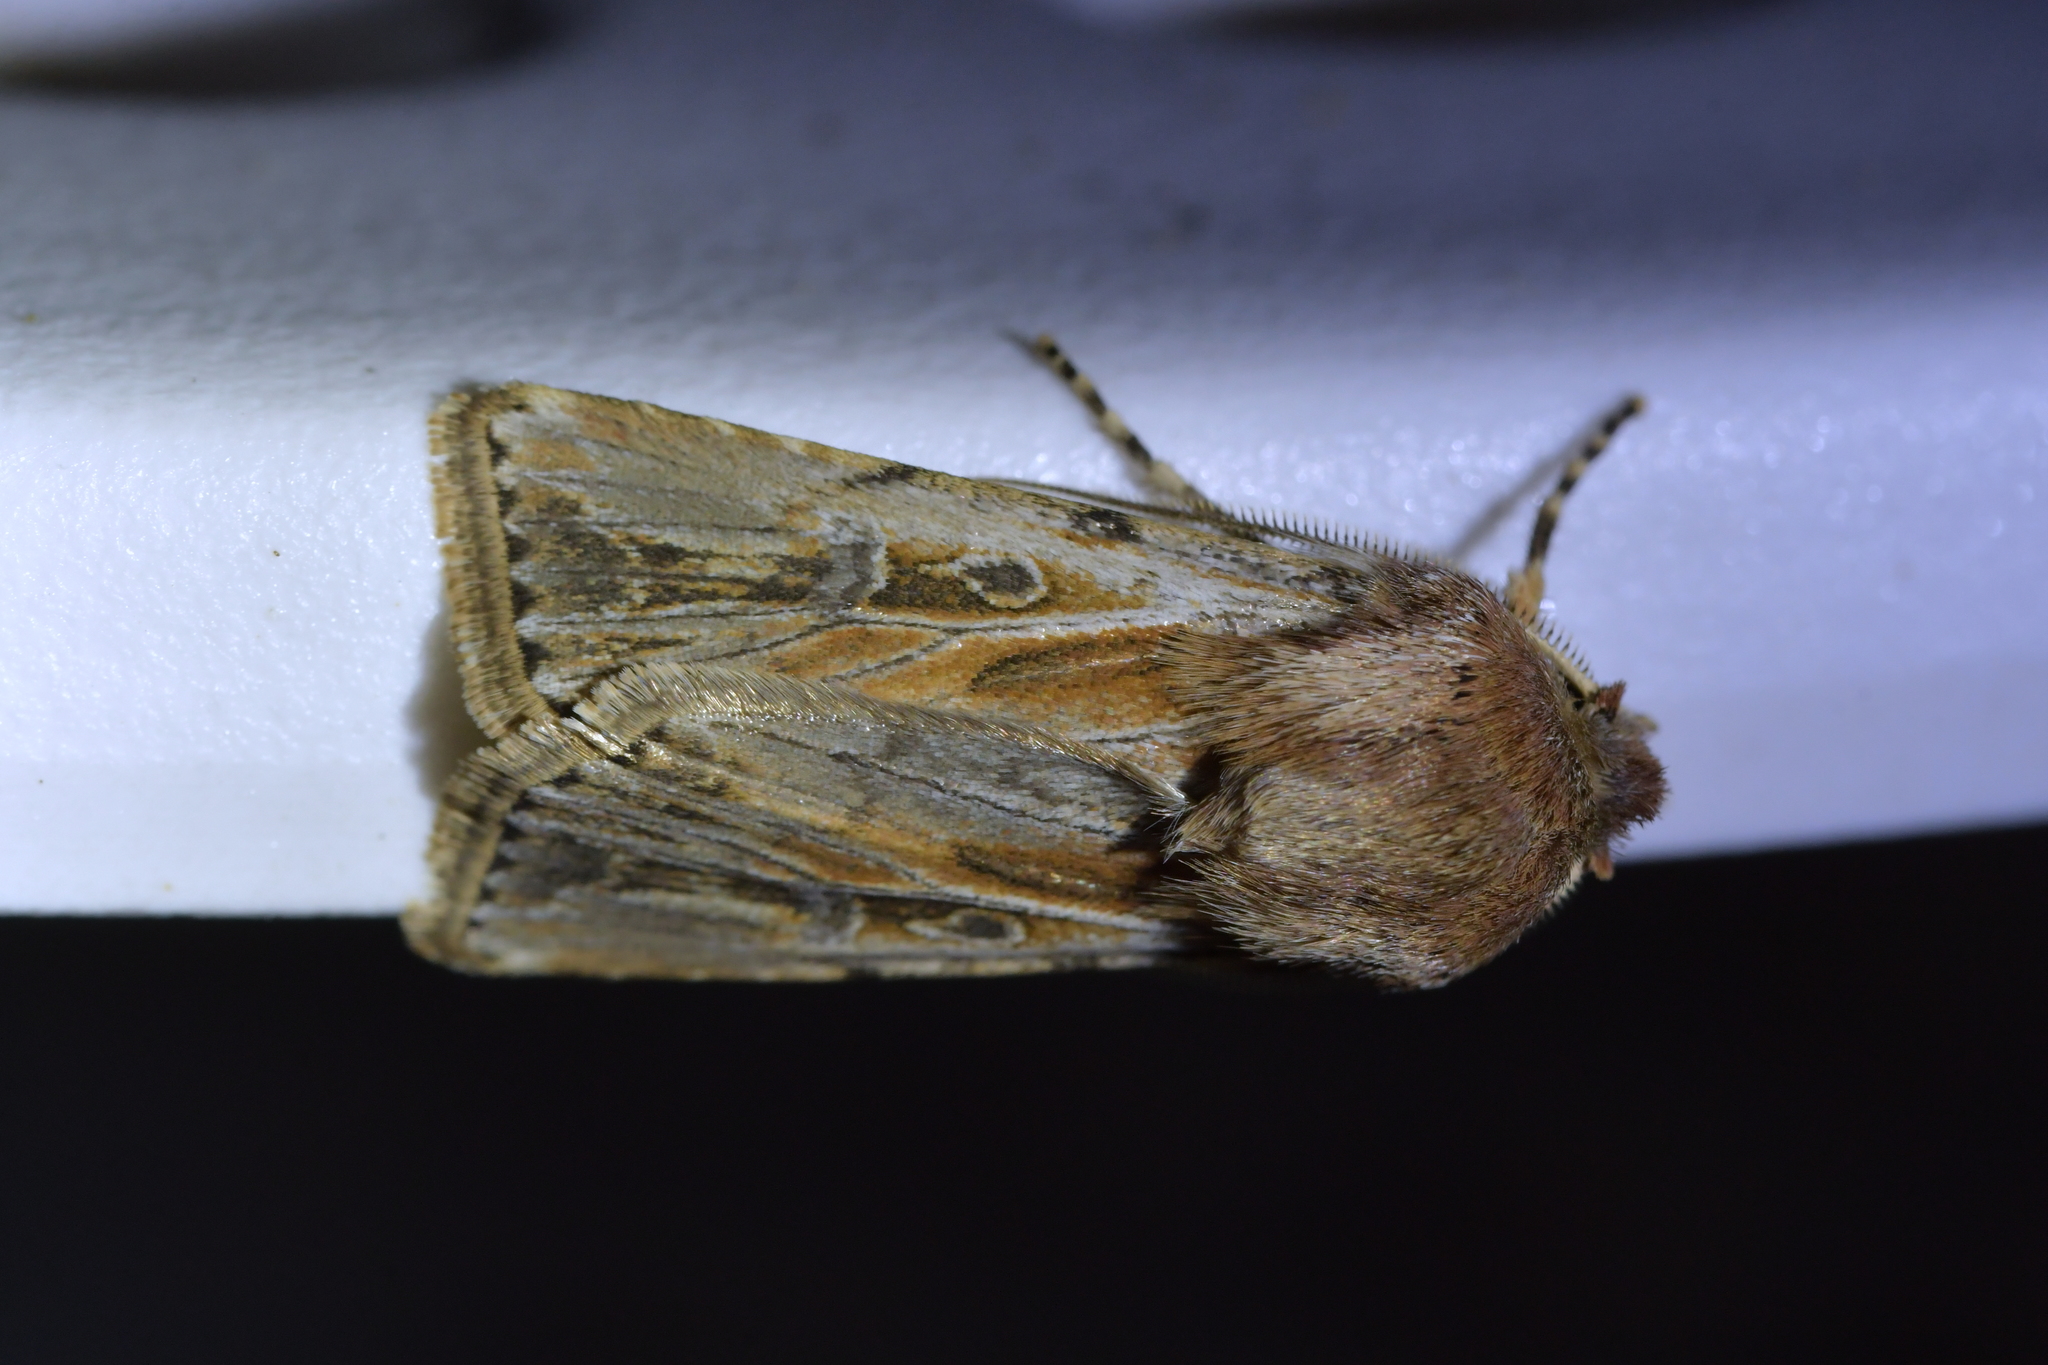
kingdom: Animalia
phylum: Arthropoda
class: Insecta
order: Lepidoptera
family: Noctuidae
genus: Agrotis
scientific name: Agrotis innominata
